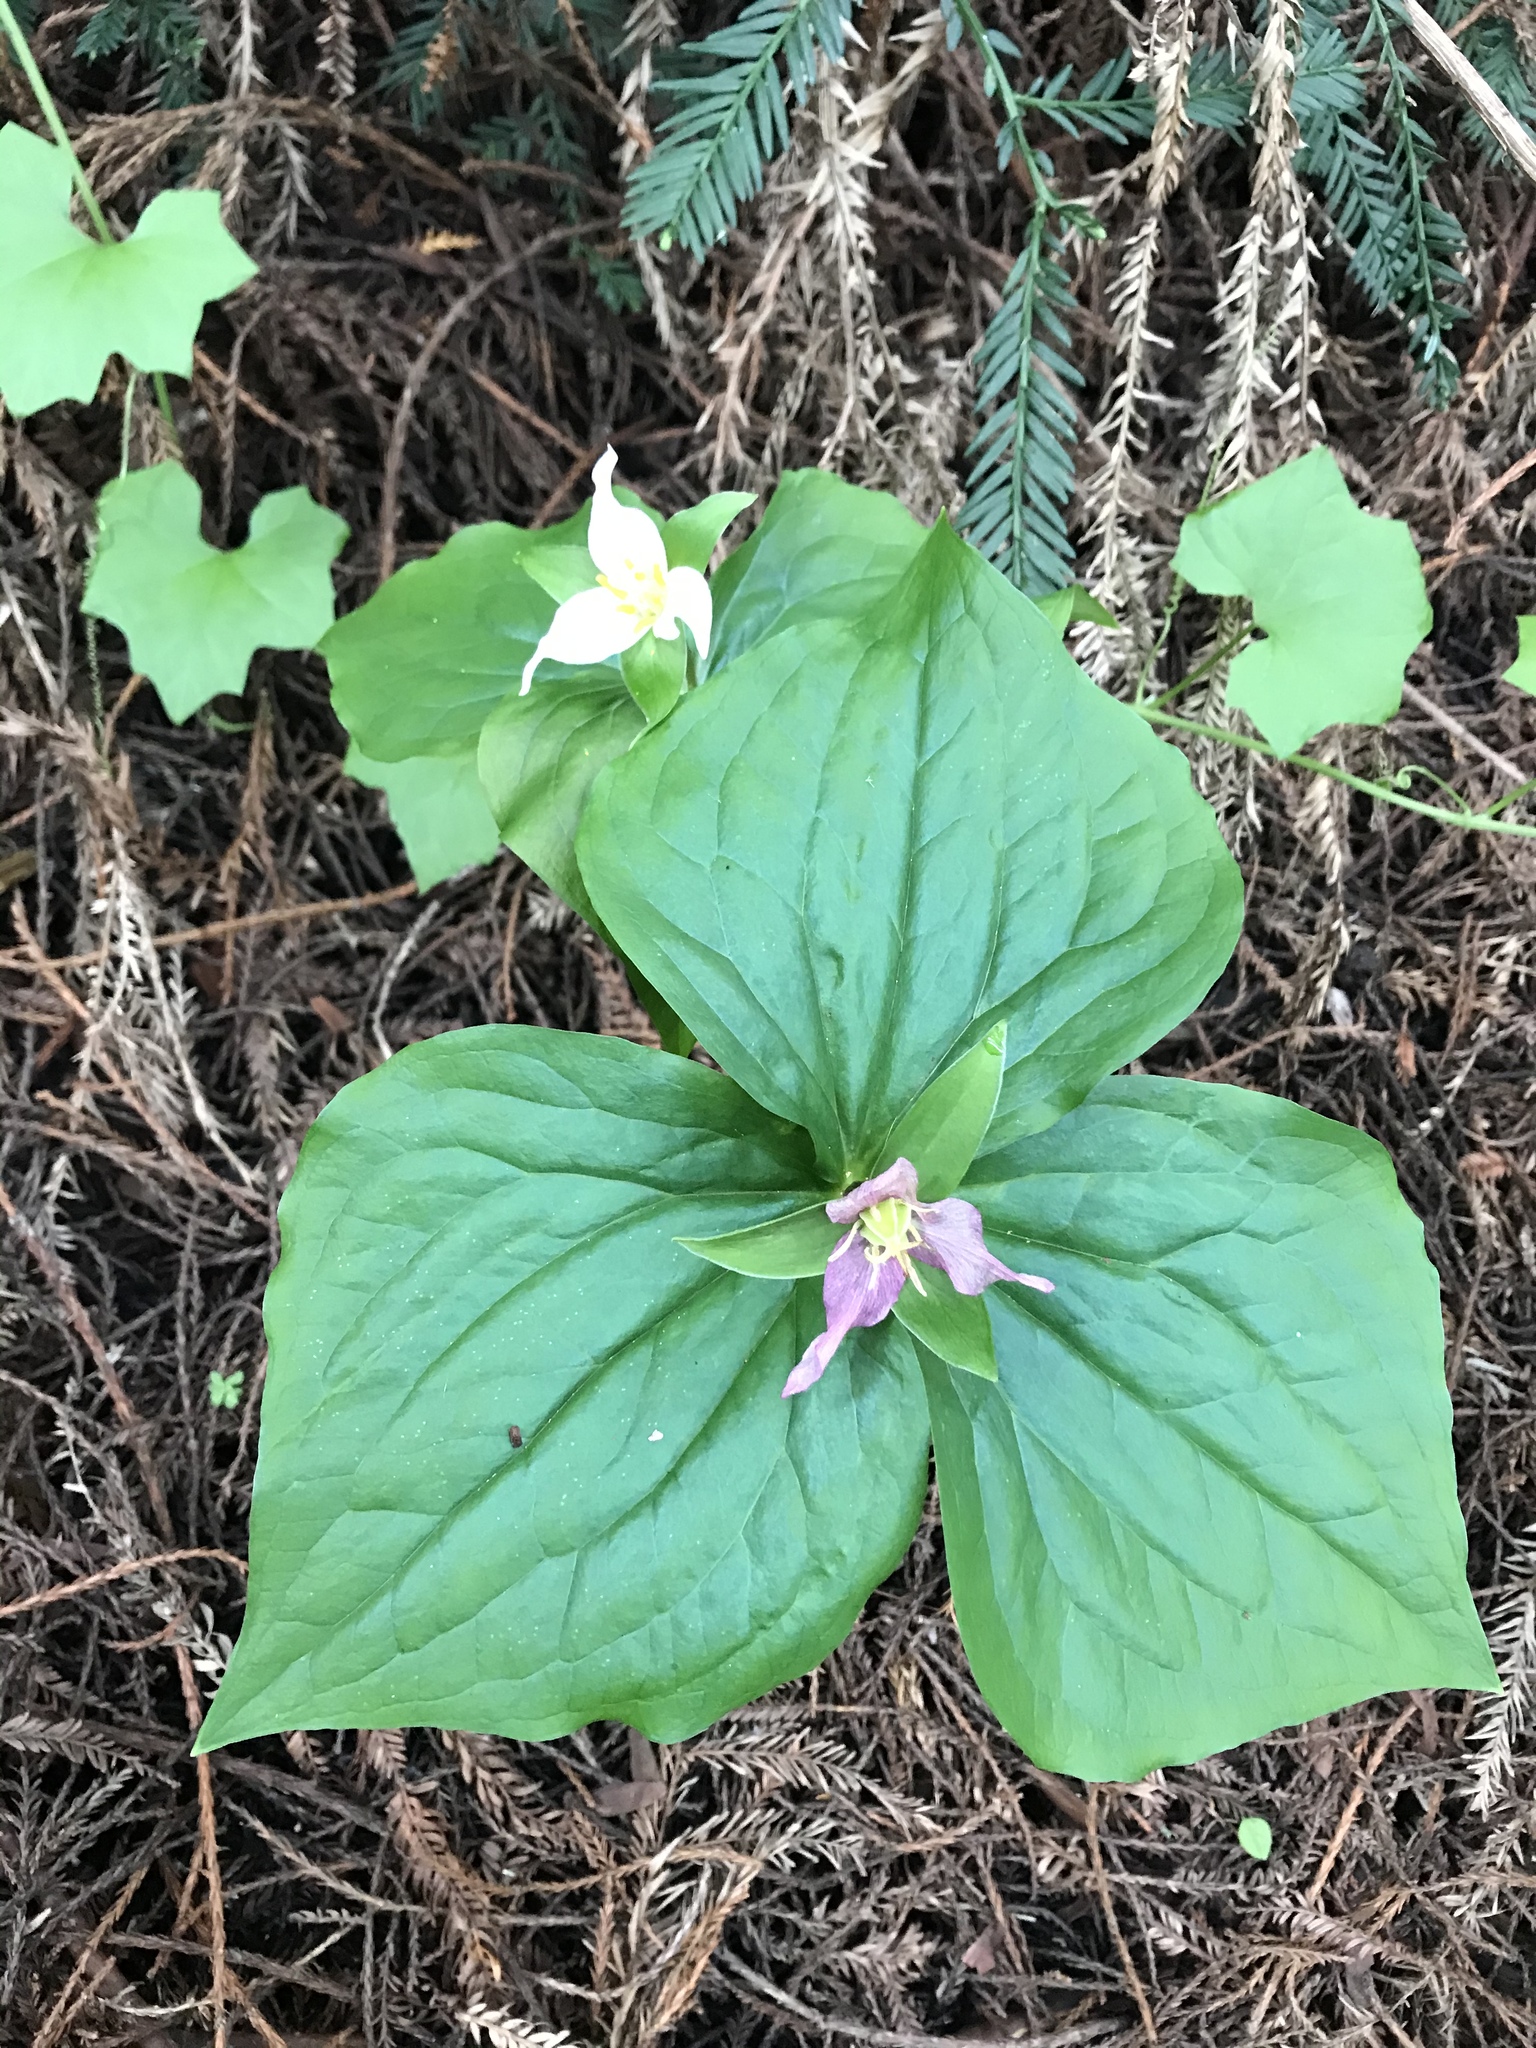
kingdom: Plantae
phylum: Tracheophyta
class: Liliopsida
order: Liliales
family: Melanthiaceae
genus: Trillium
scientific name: Trillium ovatum
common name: Pacific trillium
